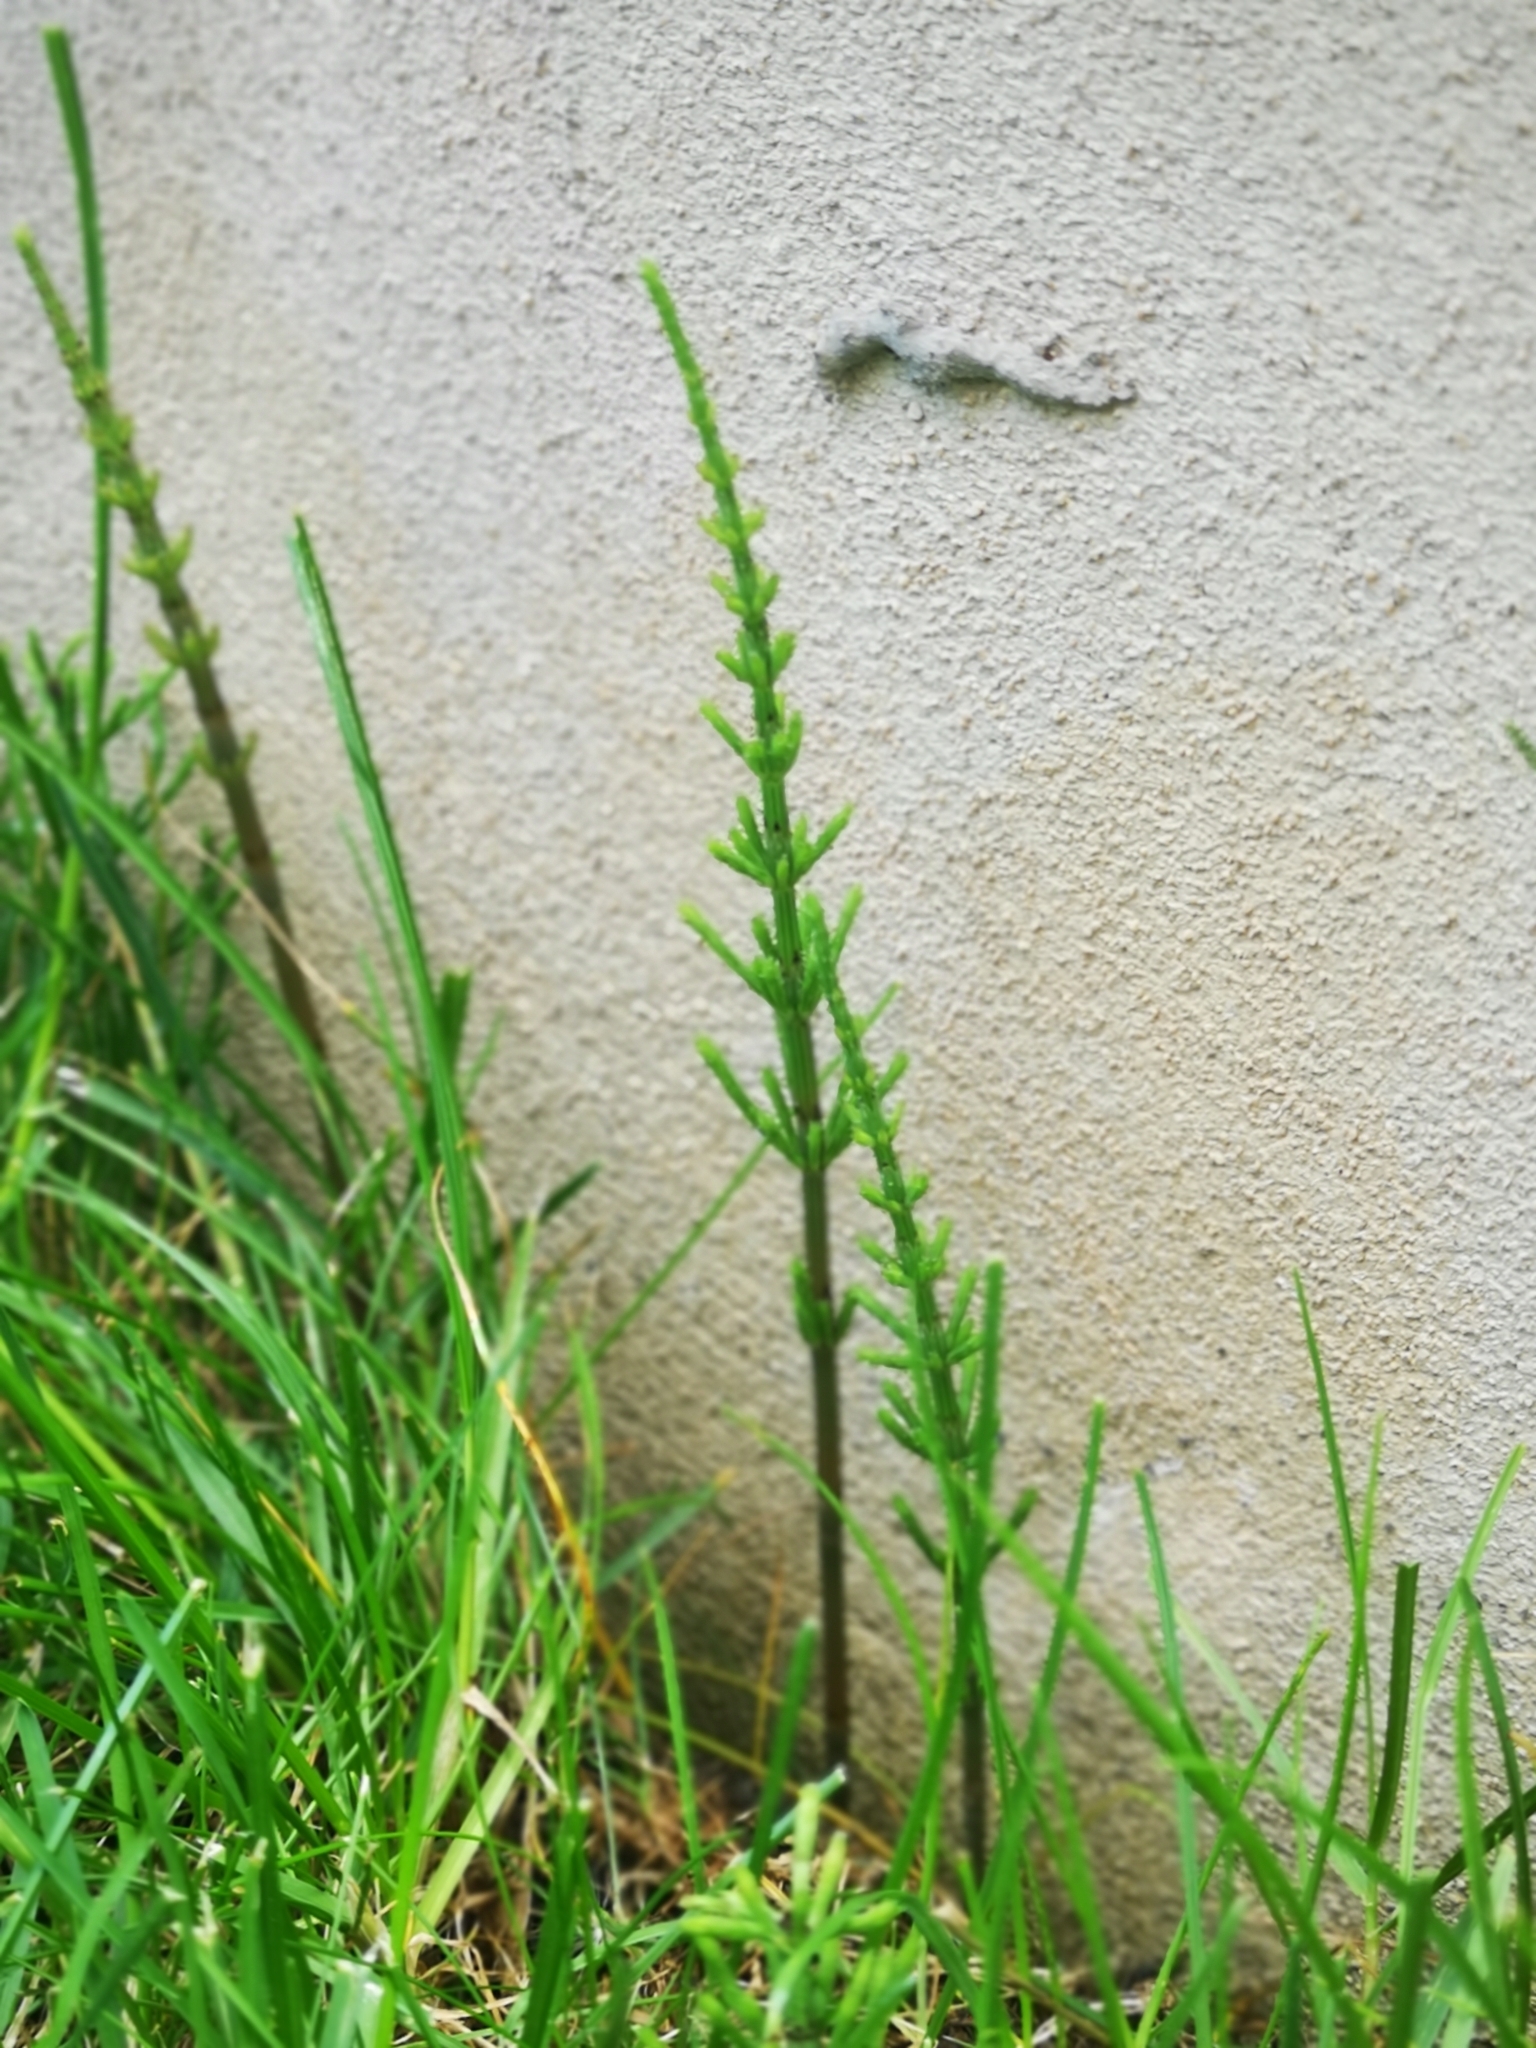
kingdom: Plantae
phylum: Tracheophyta
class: Polypodiopsida
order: Equisetales
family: Equisetaceae
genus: Equisetum
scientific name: Equisetum arvense
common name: Field horsetail
